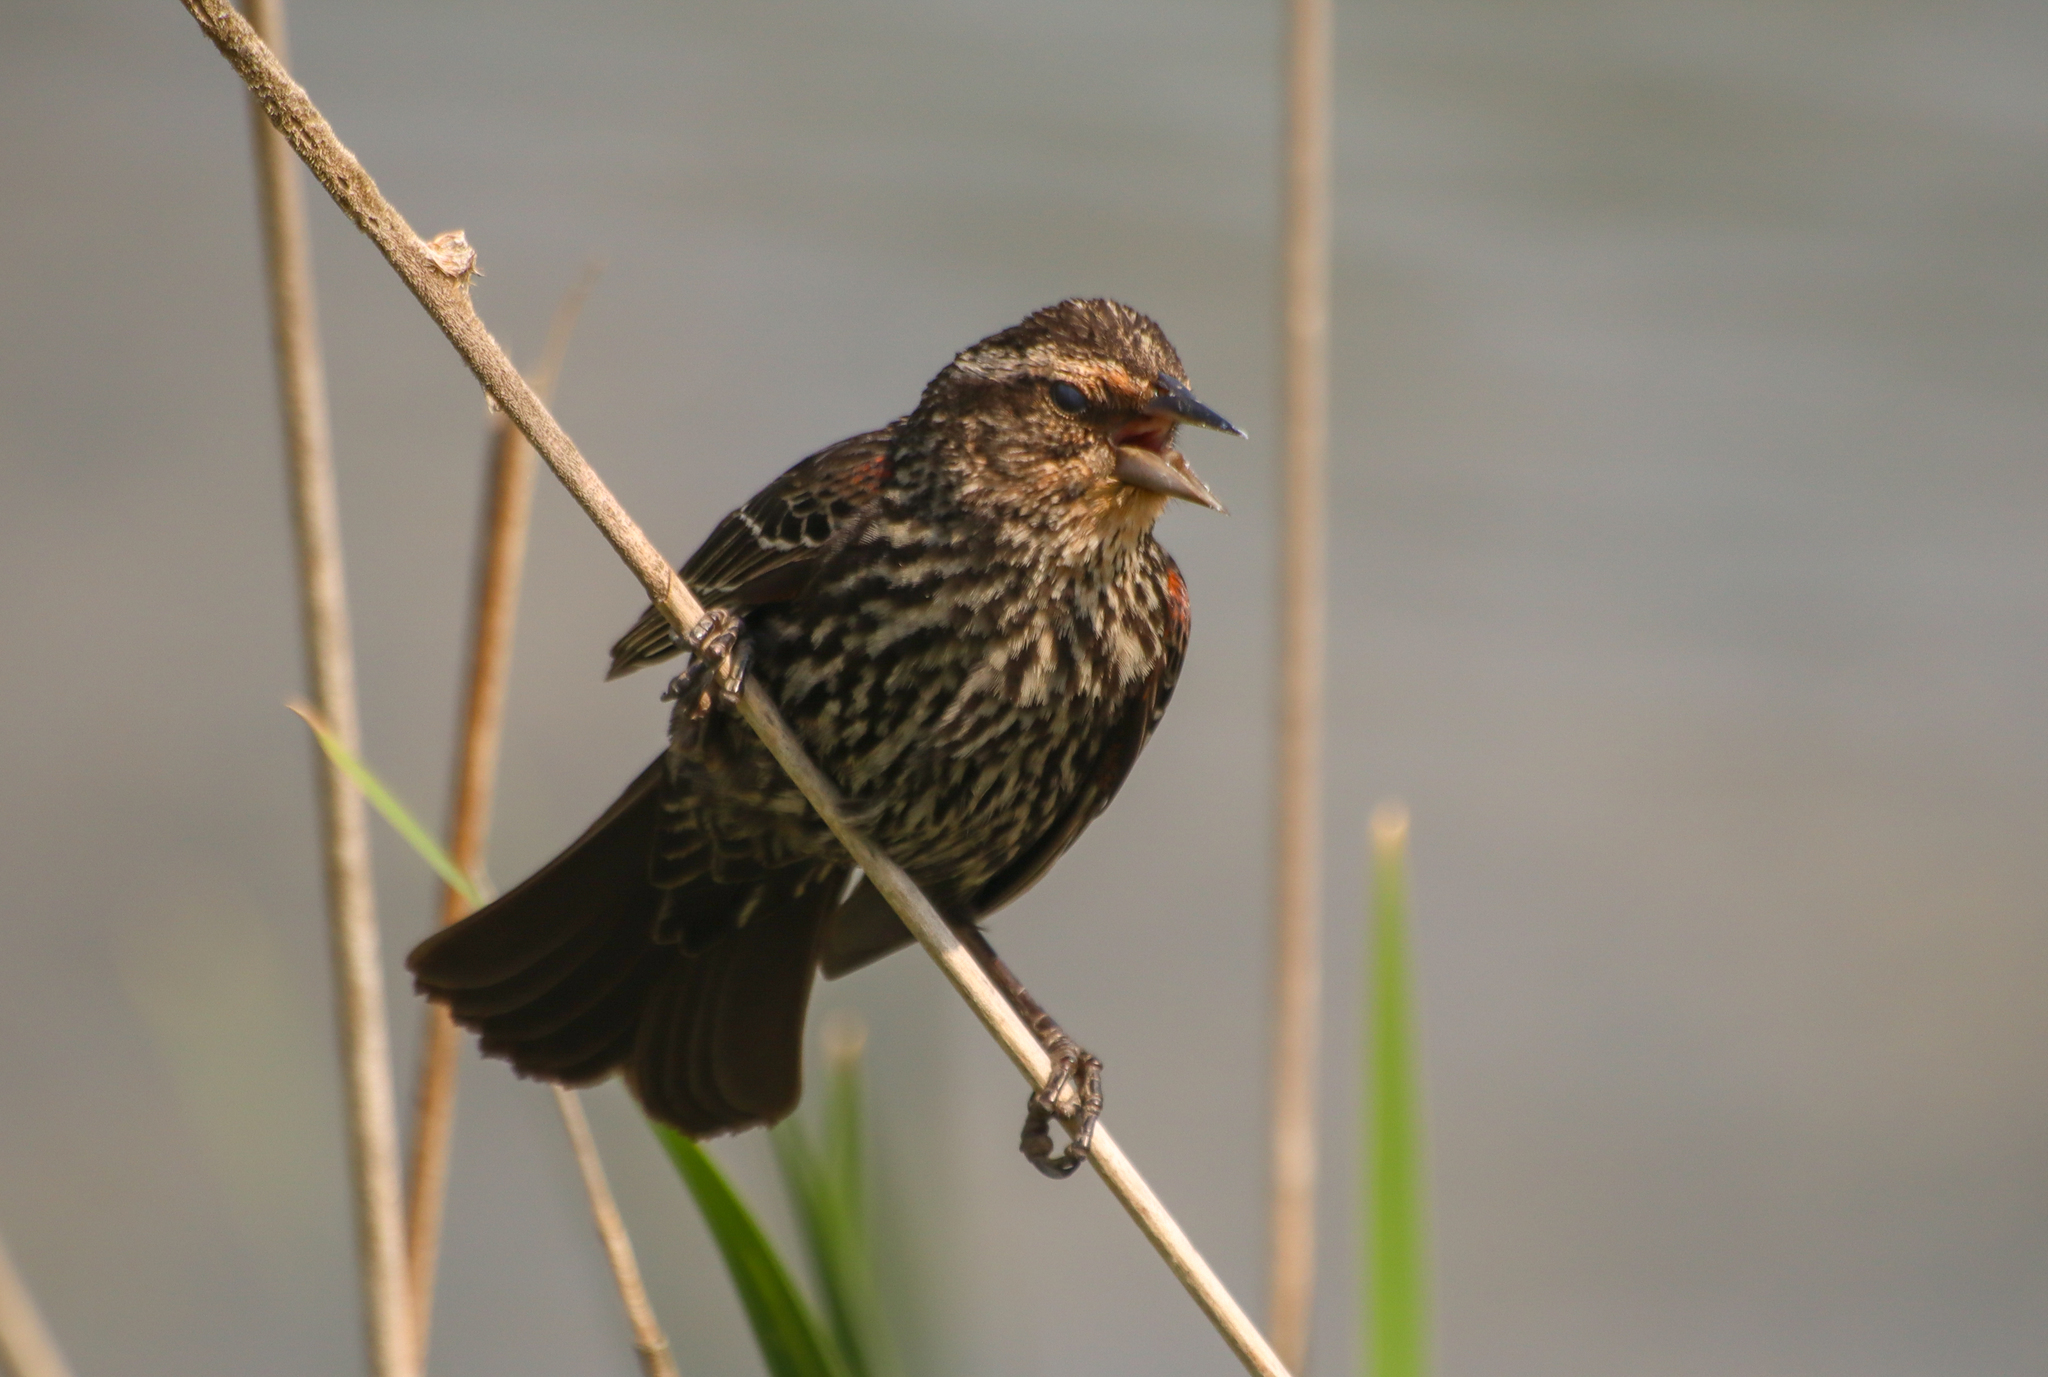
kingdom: Animalia
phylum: Chordata
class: Aves
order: Passeriformes
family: Icteridae
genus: Agelaius
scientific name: Agelaius phoeniceus
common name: Red-winged blackbird
